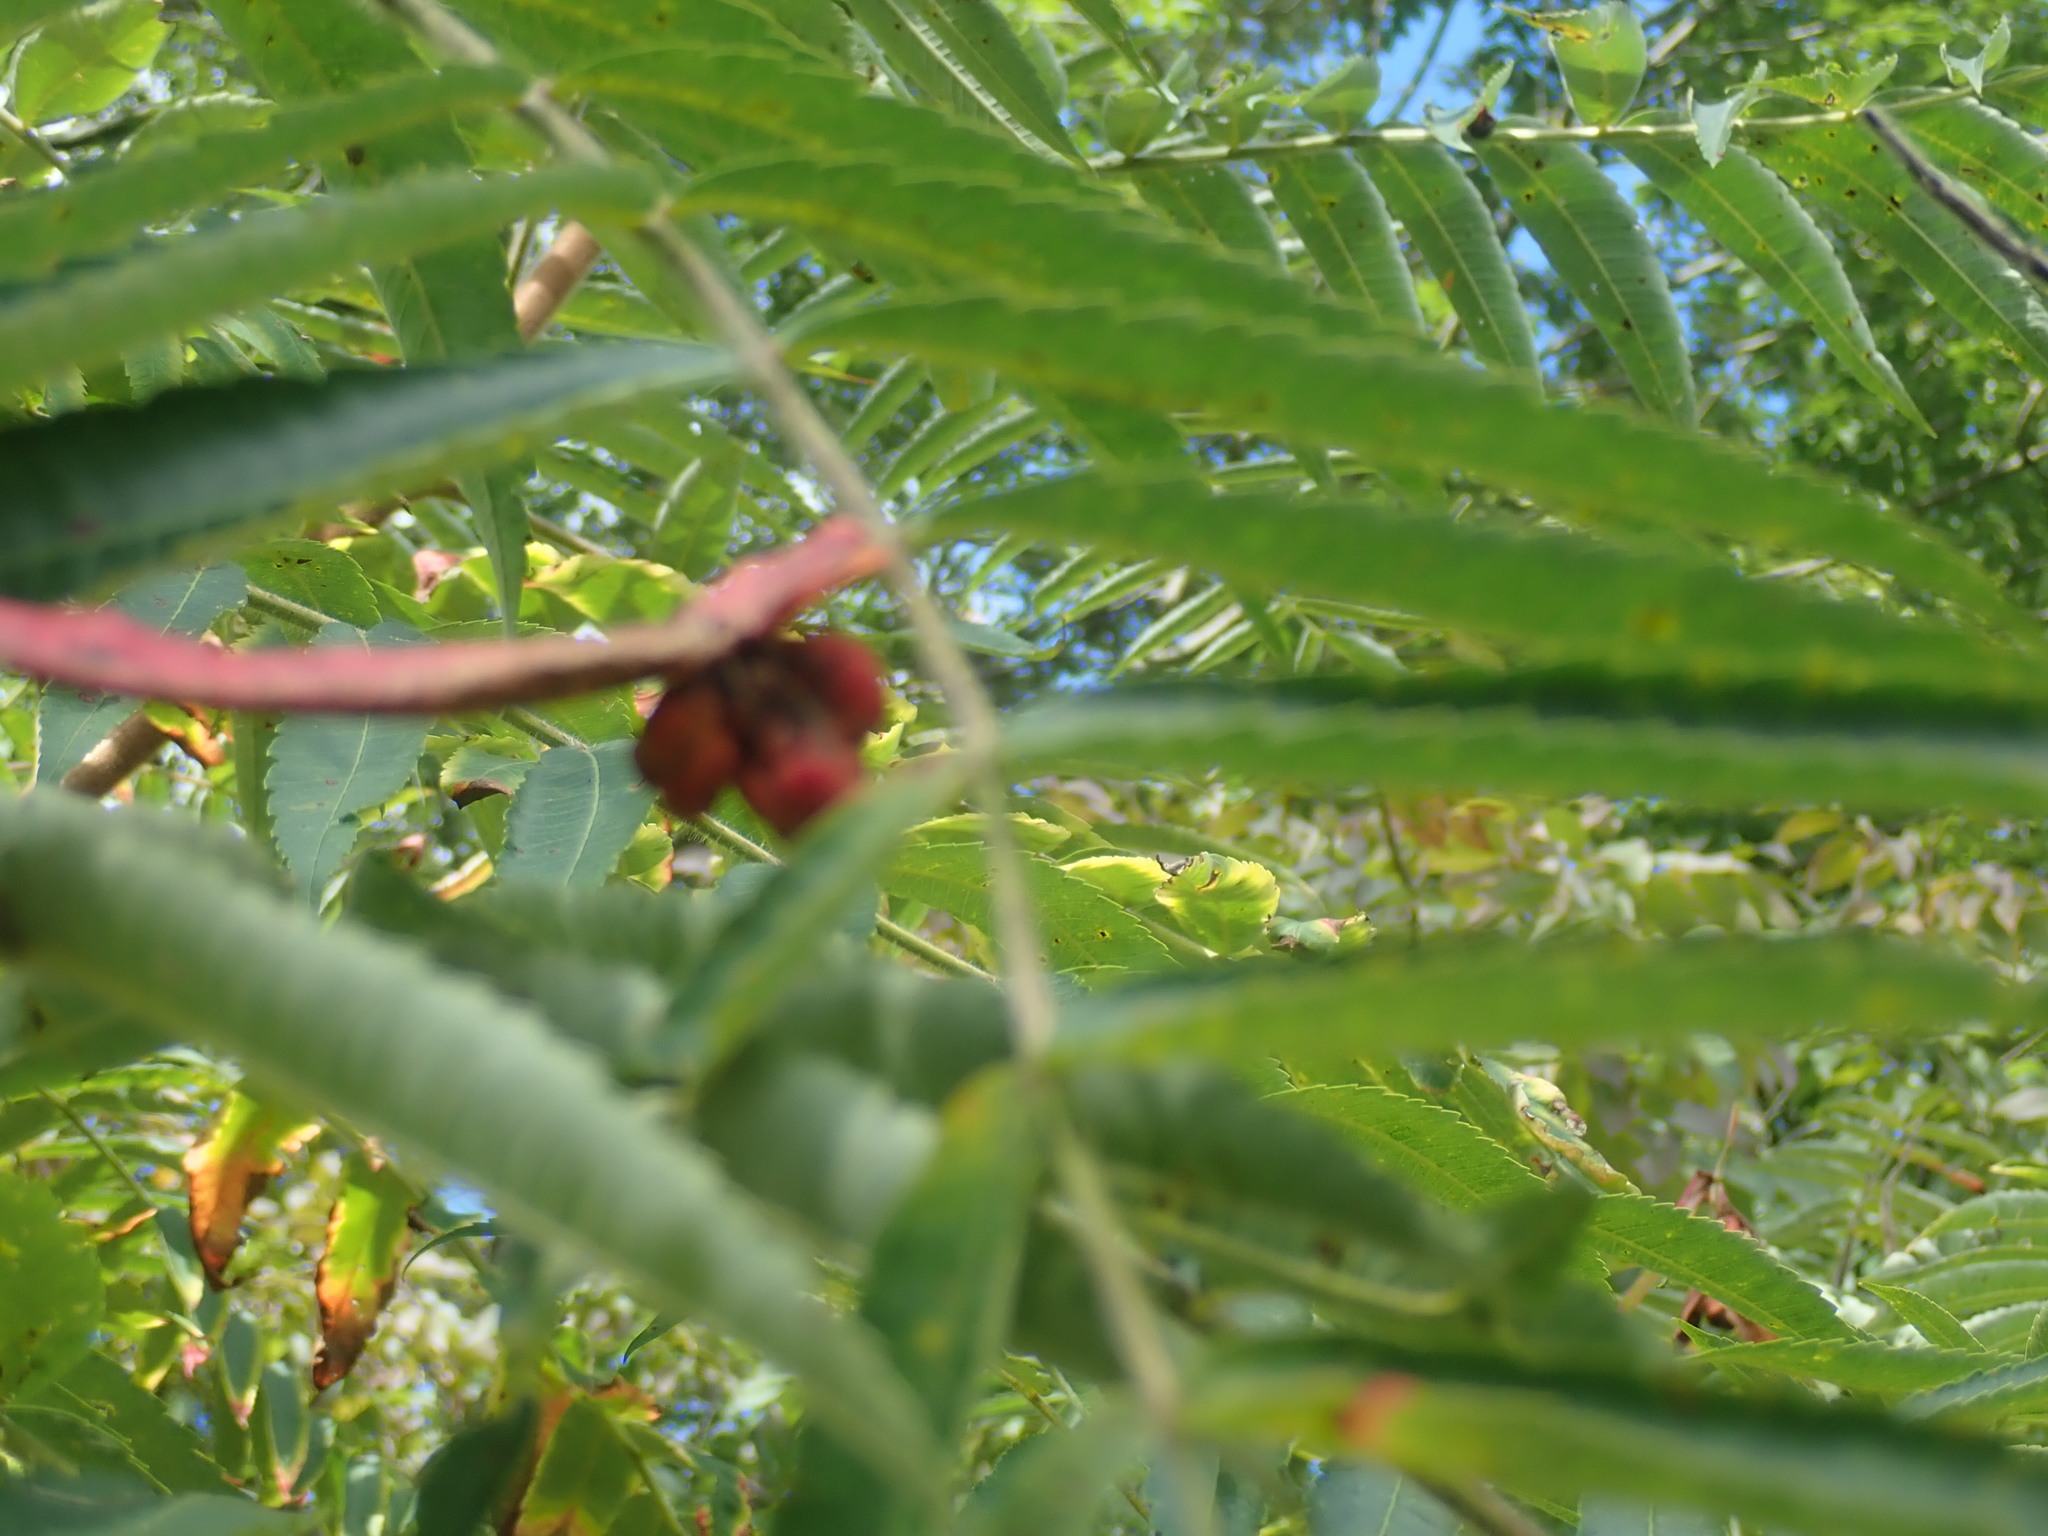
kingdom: Animalia
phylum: Arthropoda
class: Insecta
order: Hemiptera
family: Aphididae
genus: Melaphis
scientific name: Melaphis rhois
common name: Sumac gall aphid
